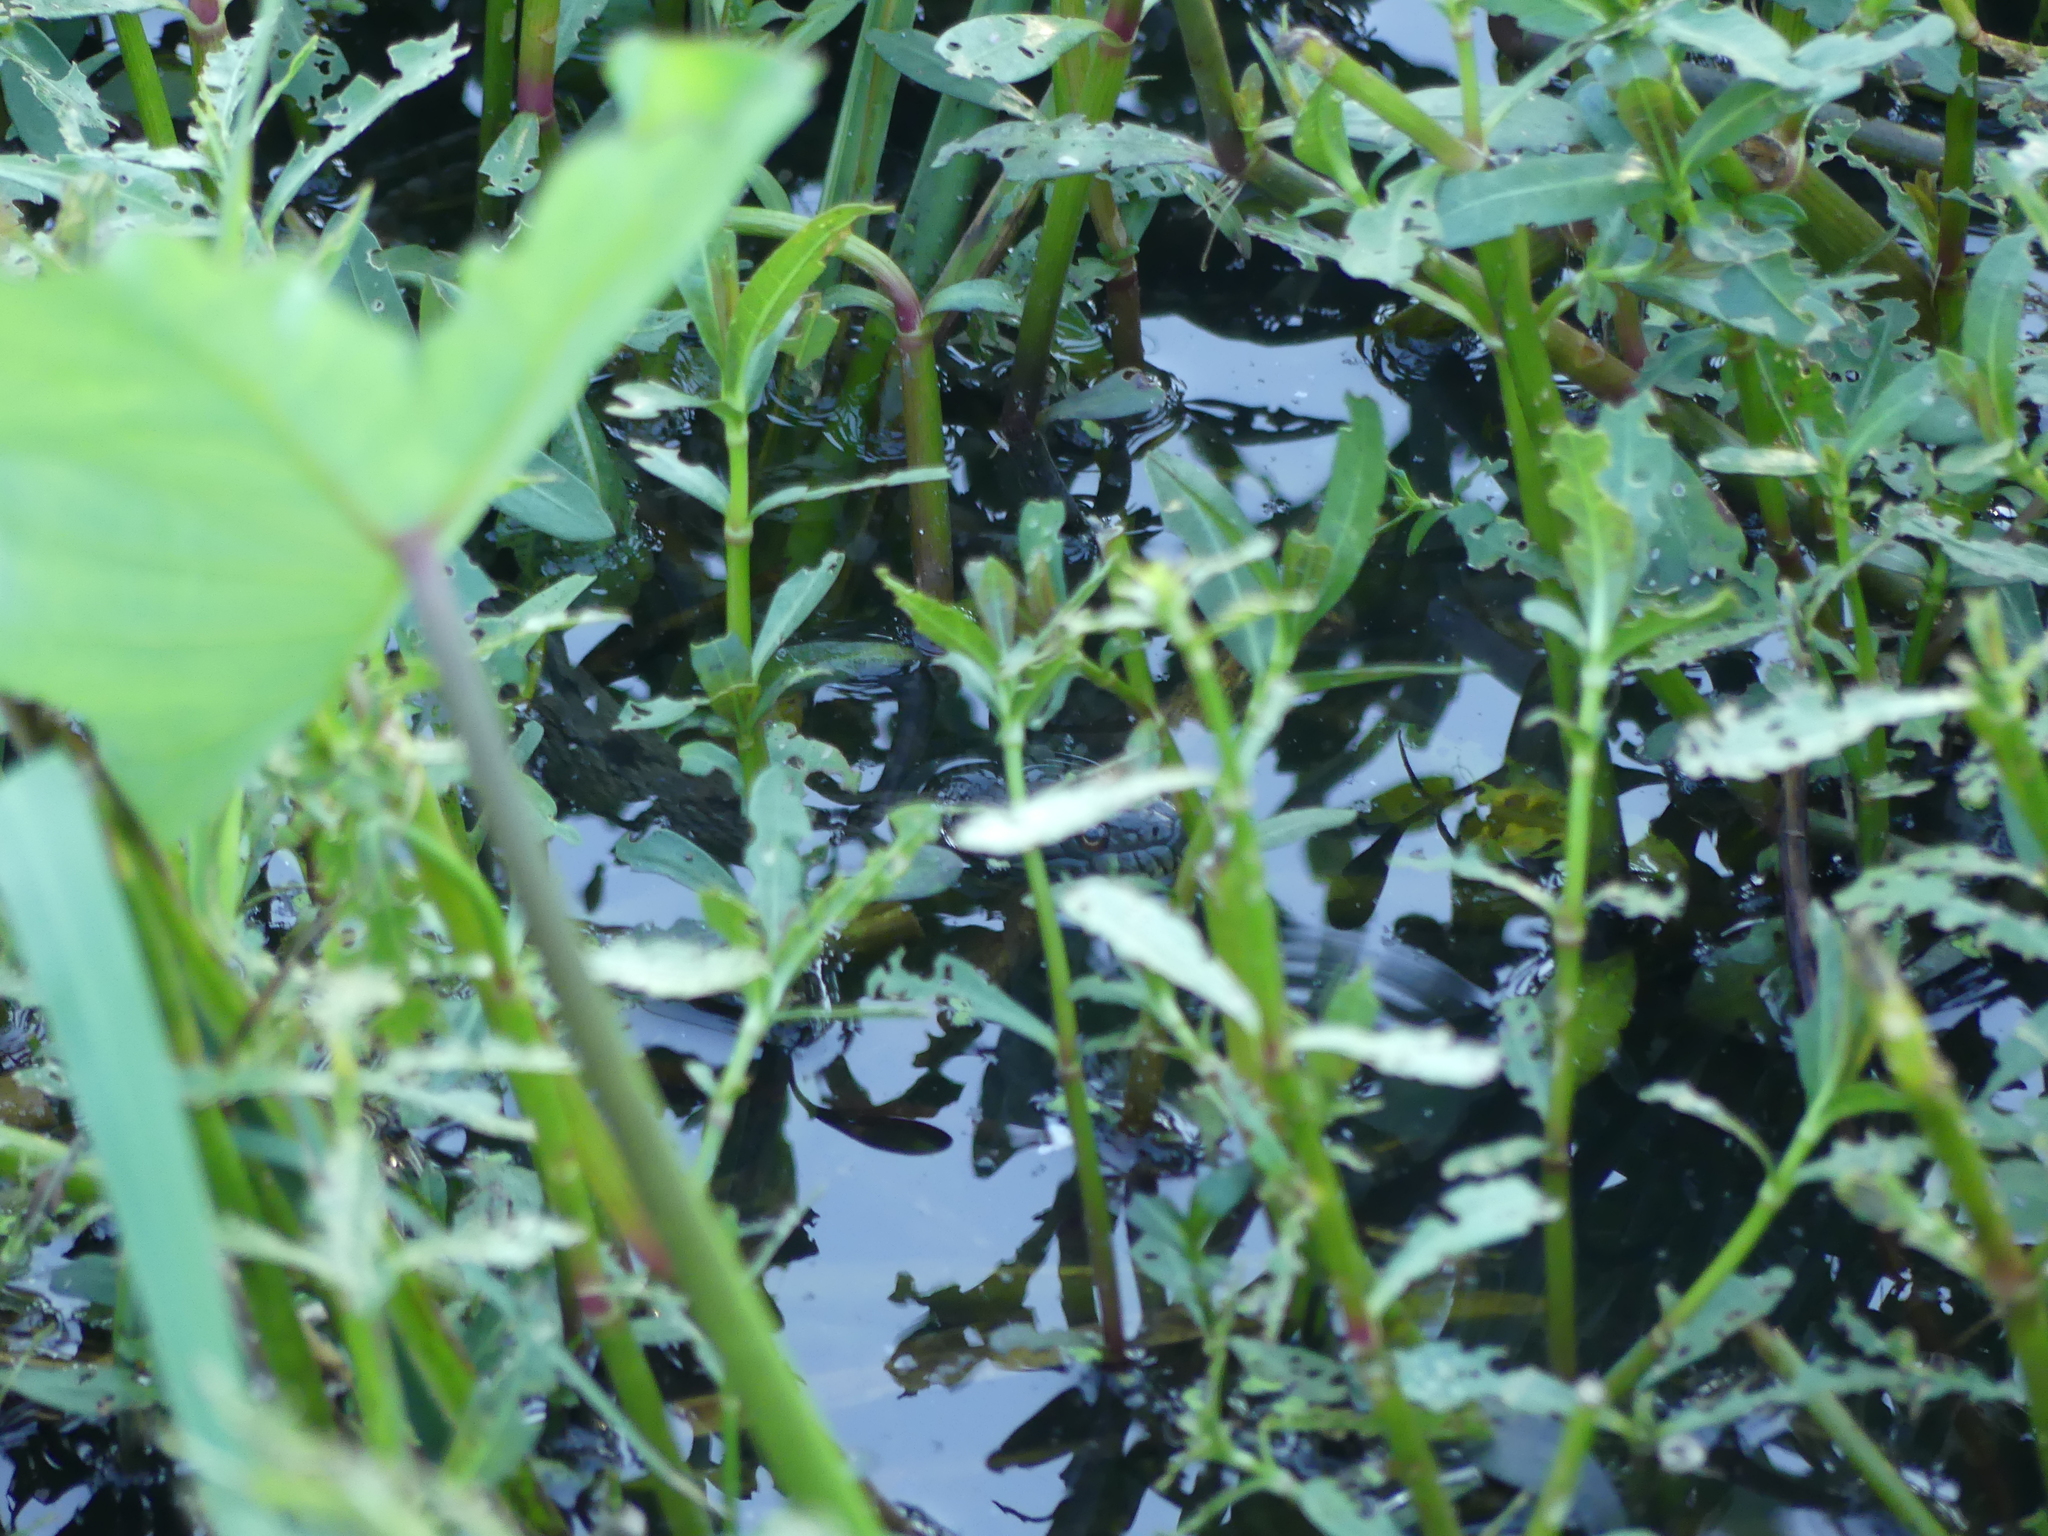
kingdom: Animalia
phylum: Chordata
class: Squamata
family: Colubridae
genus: Nerodia
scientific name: Nerodia rhombifer
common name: Diamondback water snake
